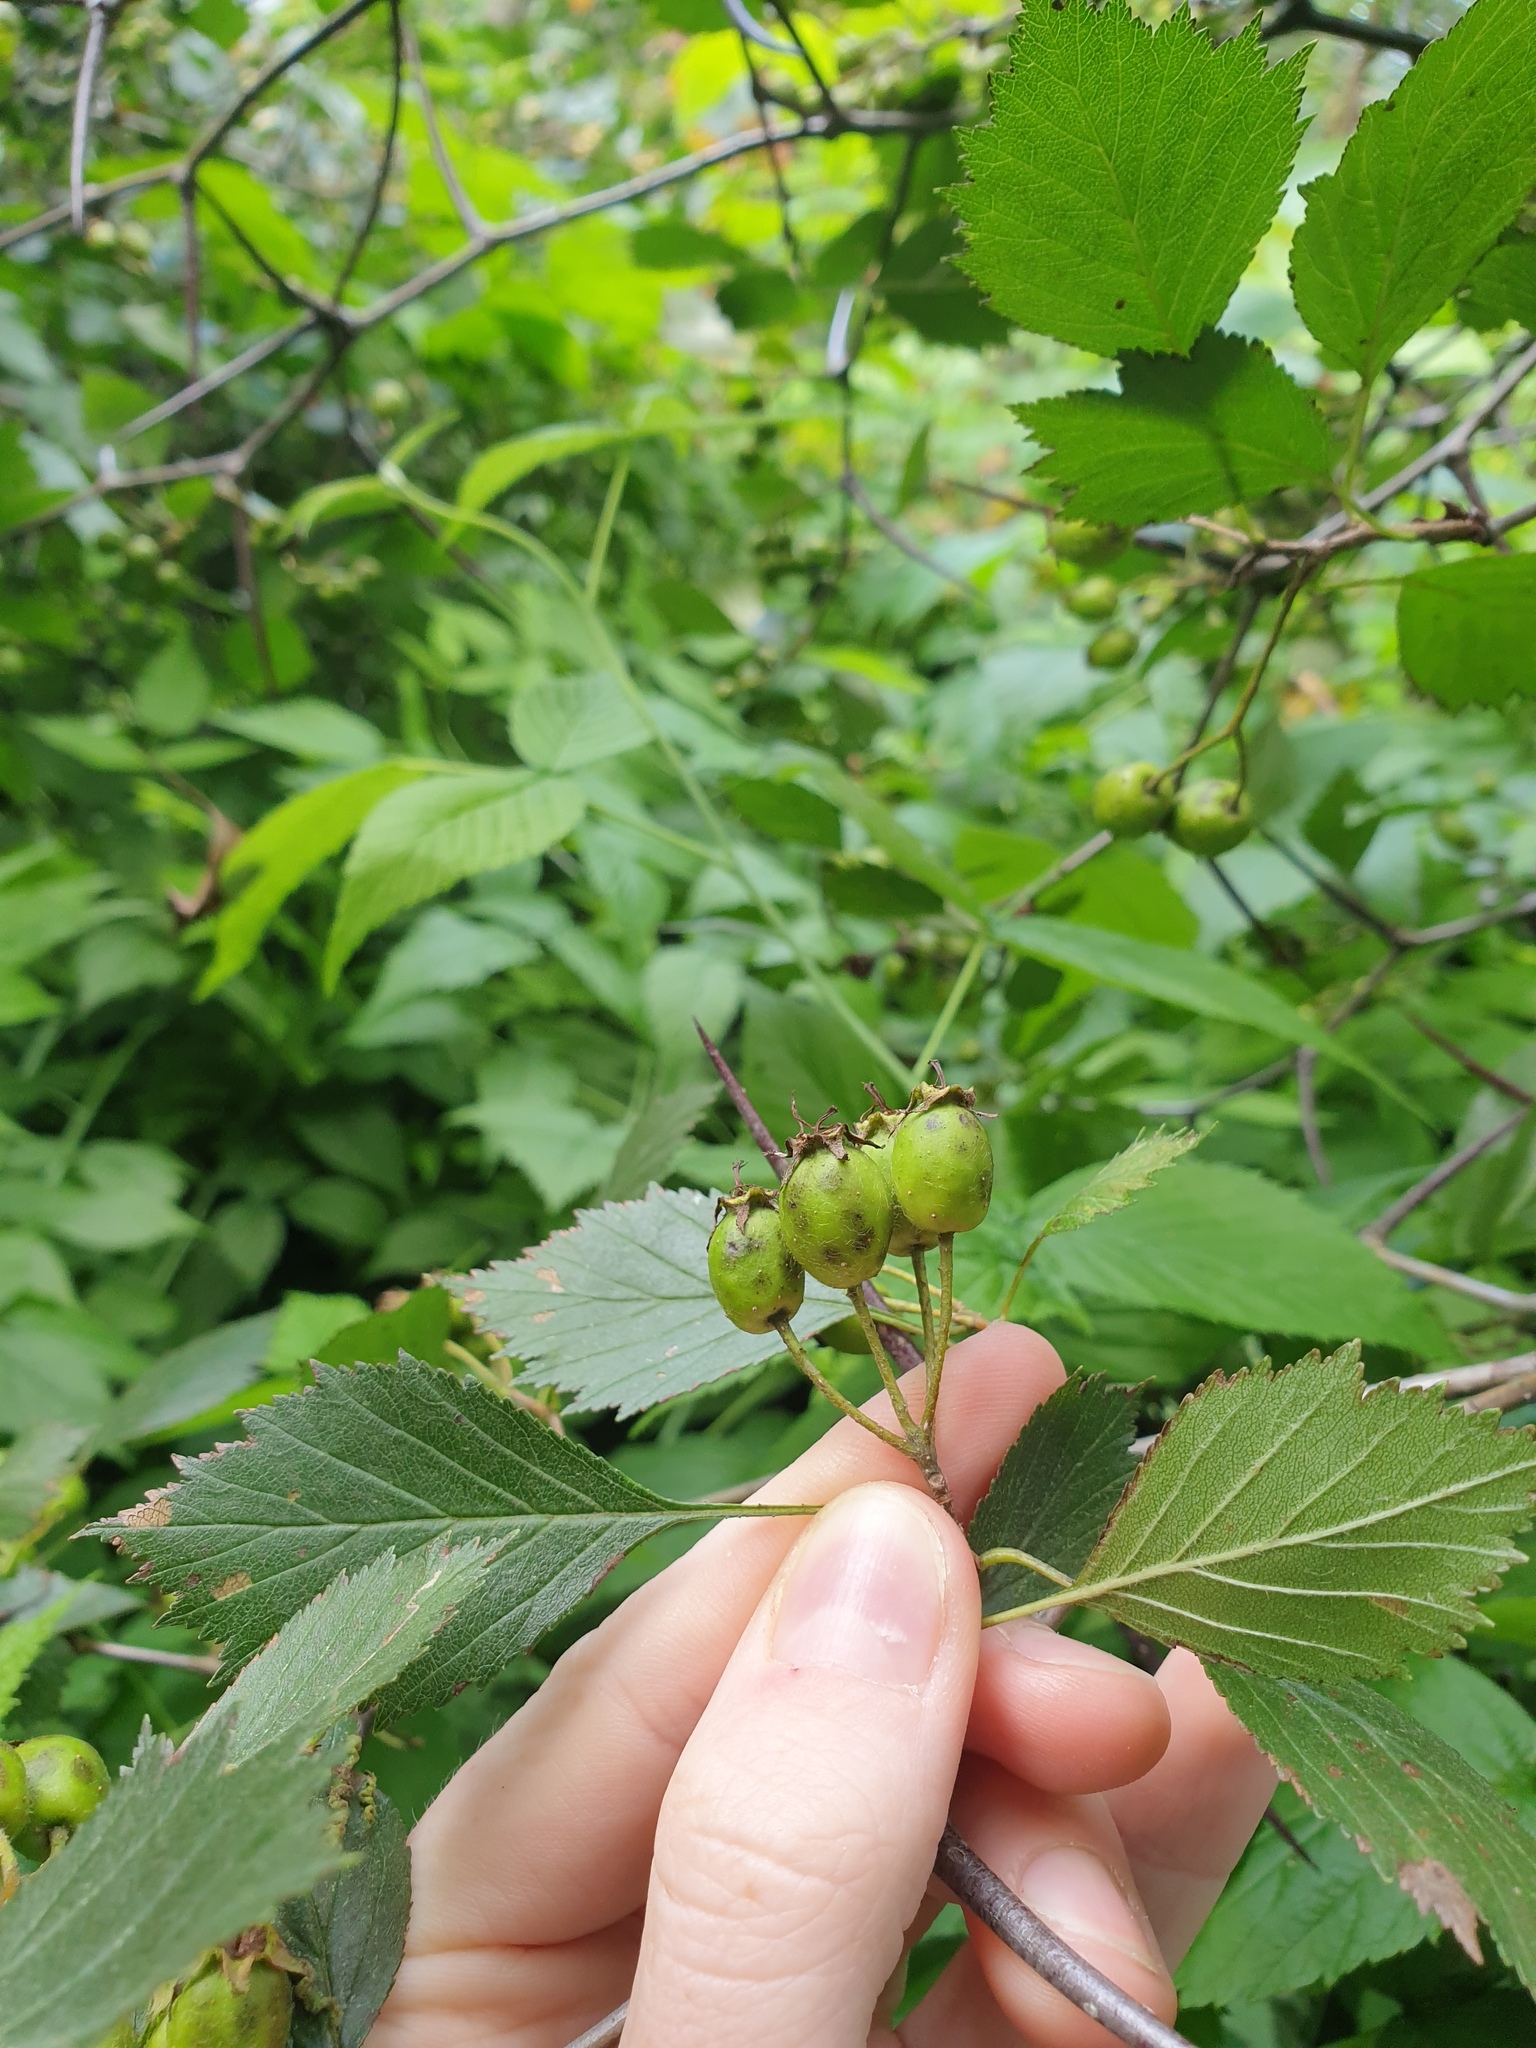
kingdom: Plantae
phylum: Tracheophyta
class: Magnoliopsida
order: Rosales
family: Rosaceae
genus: Crataegus
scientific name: Crataegus chrysocarpa
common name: Fire-berry hawthorn
